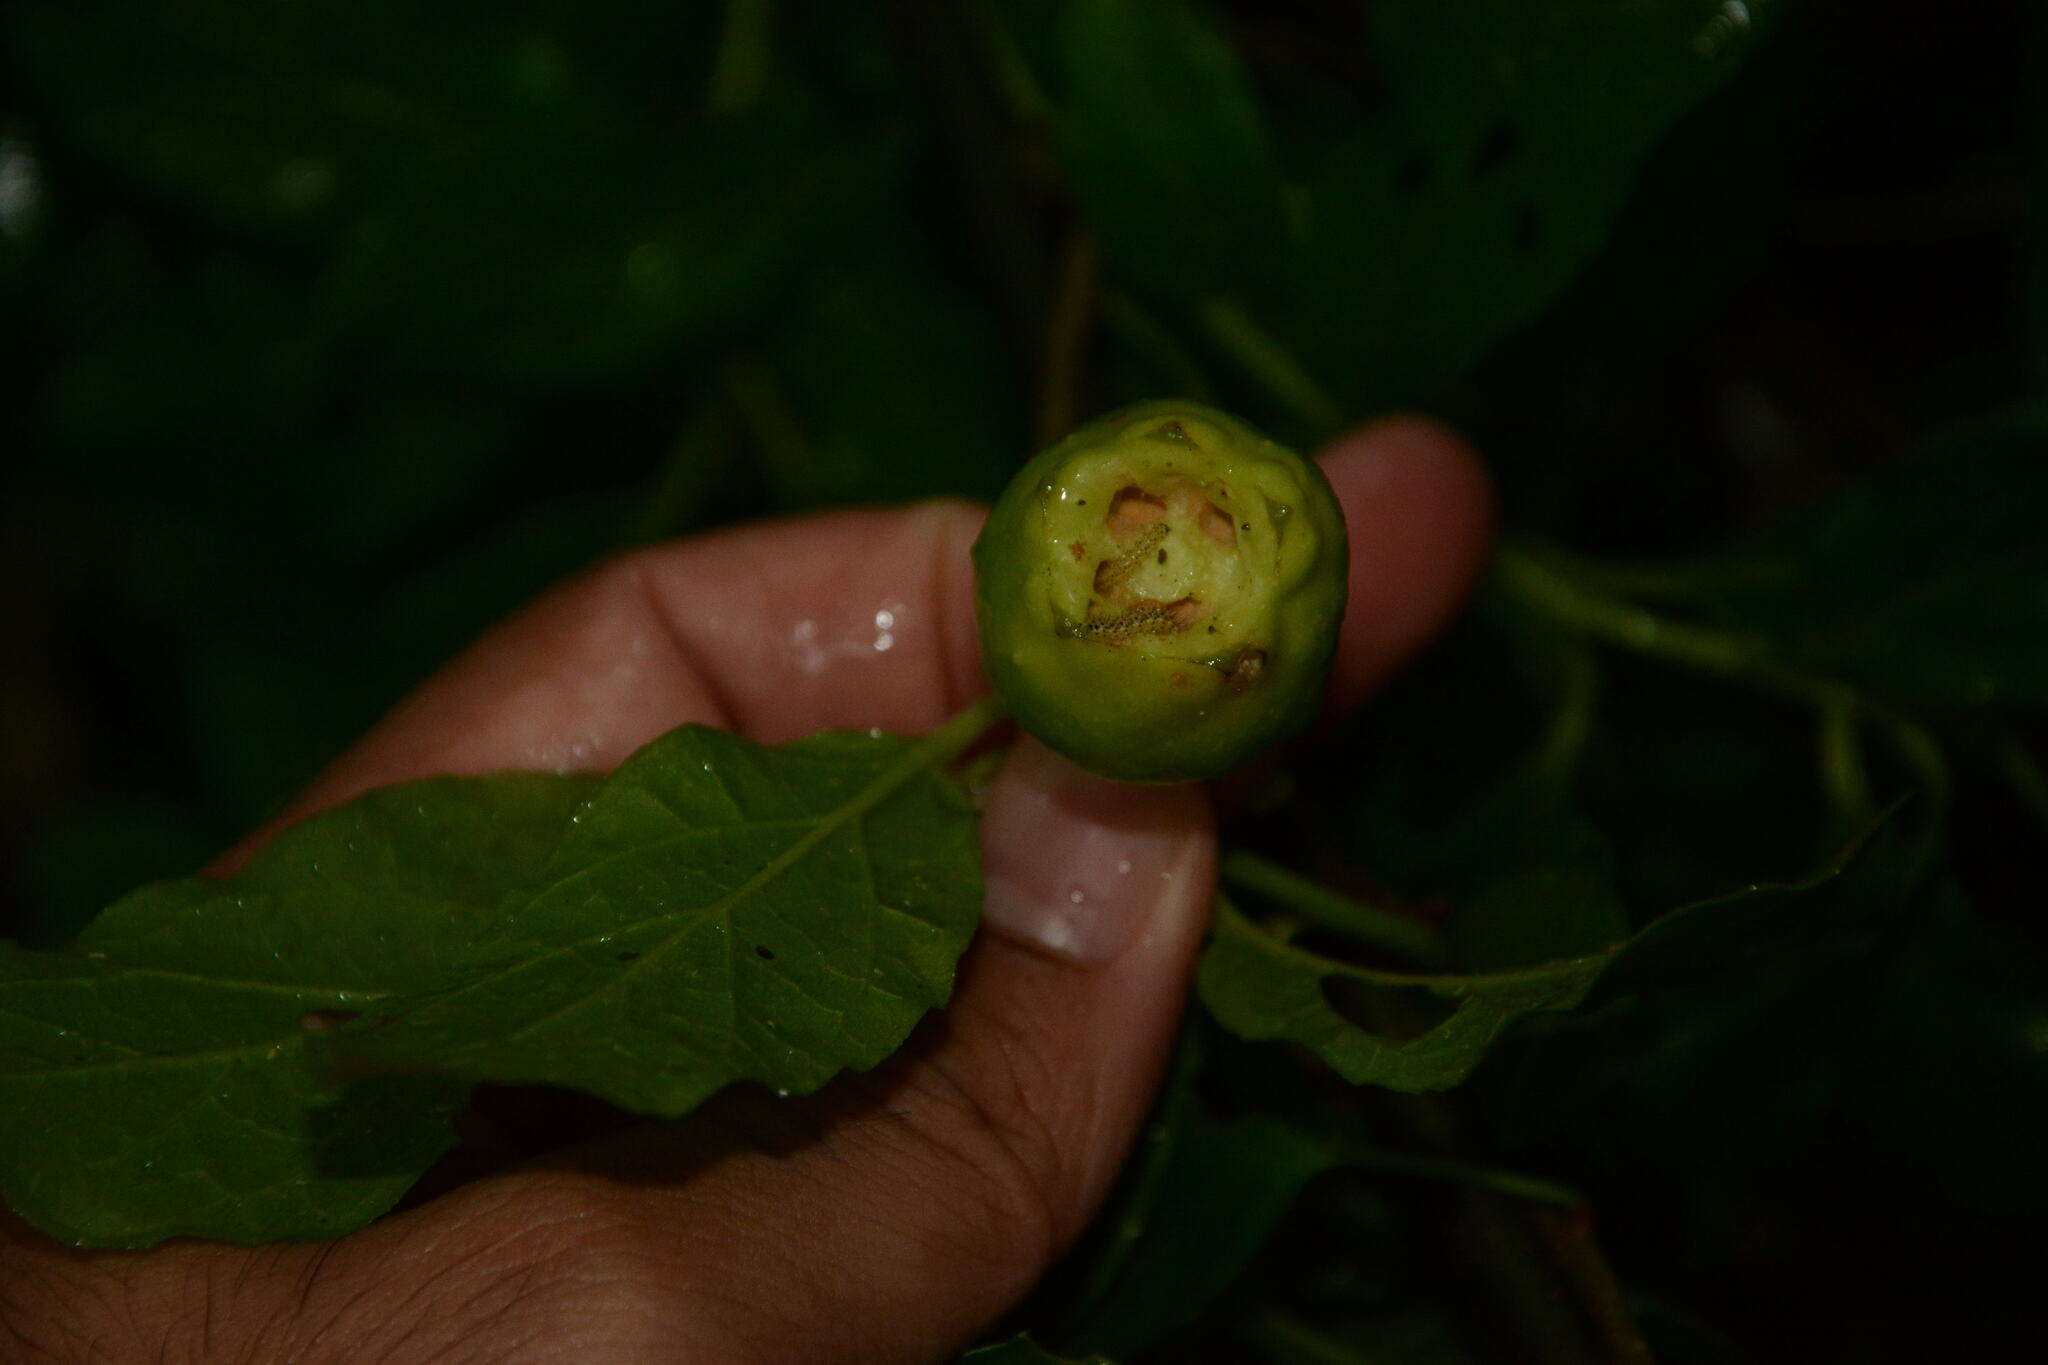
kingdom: Plantae
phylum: Tracheophyta
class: Magnoliopsida
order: Santalales
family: Cervantesiaceae
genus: Pyrularia
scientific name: Pyrularia pubera
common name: Oilnut
